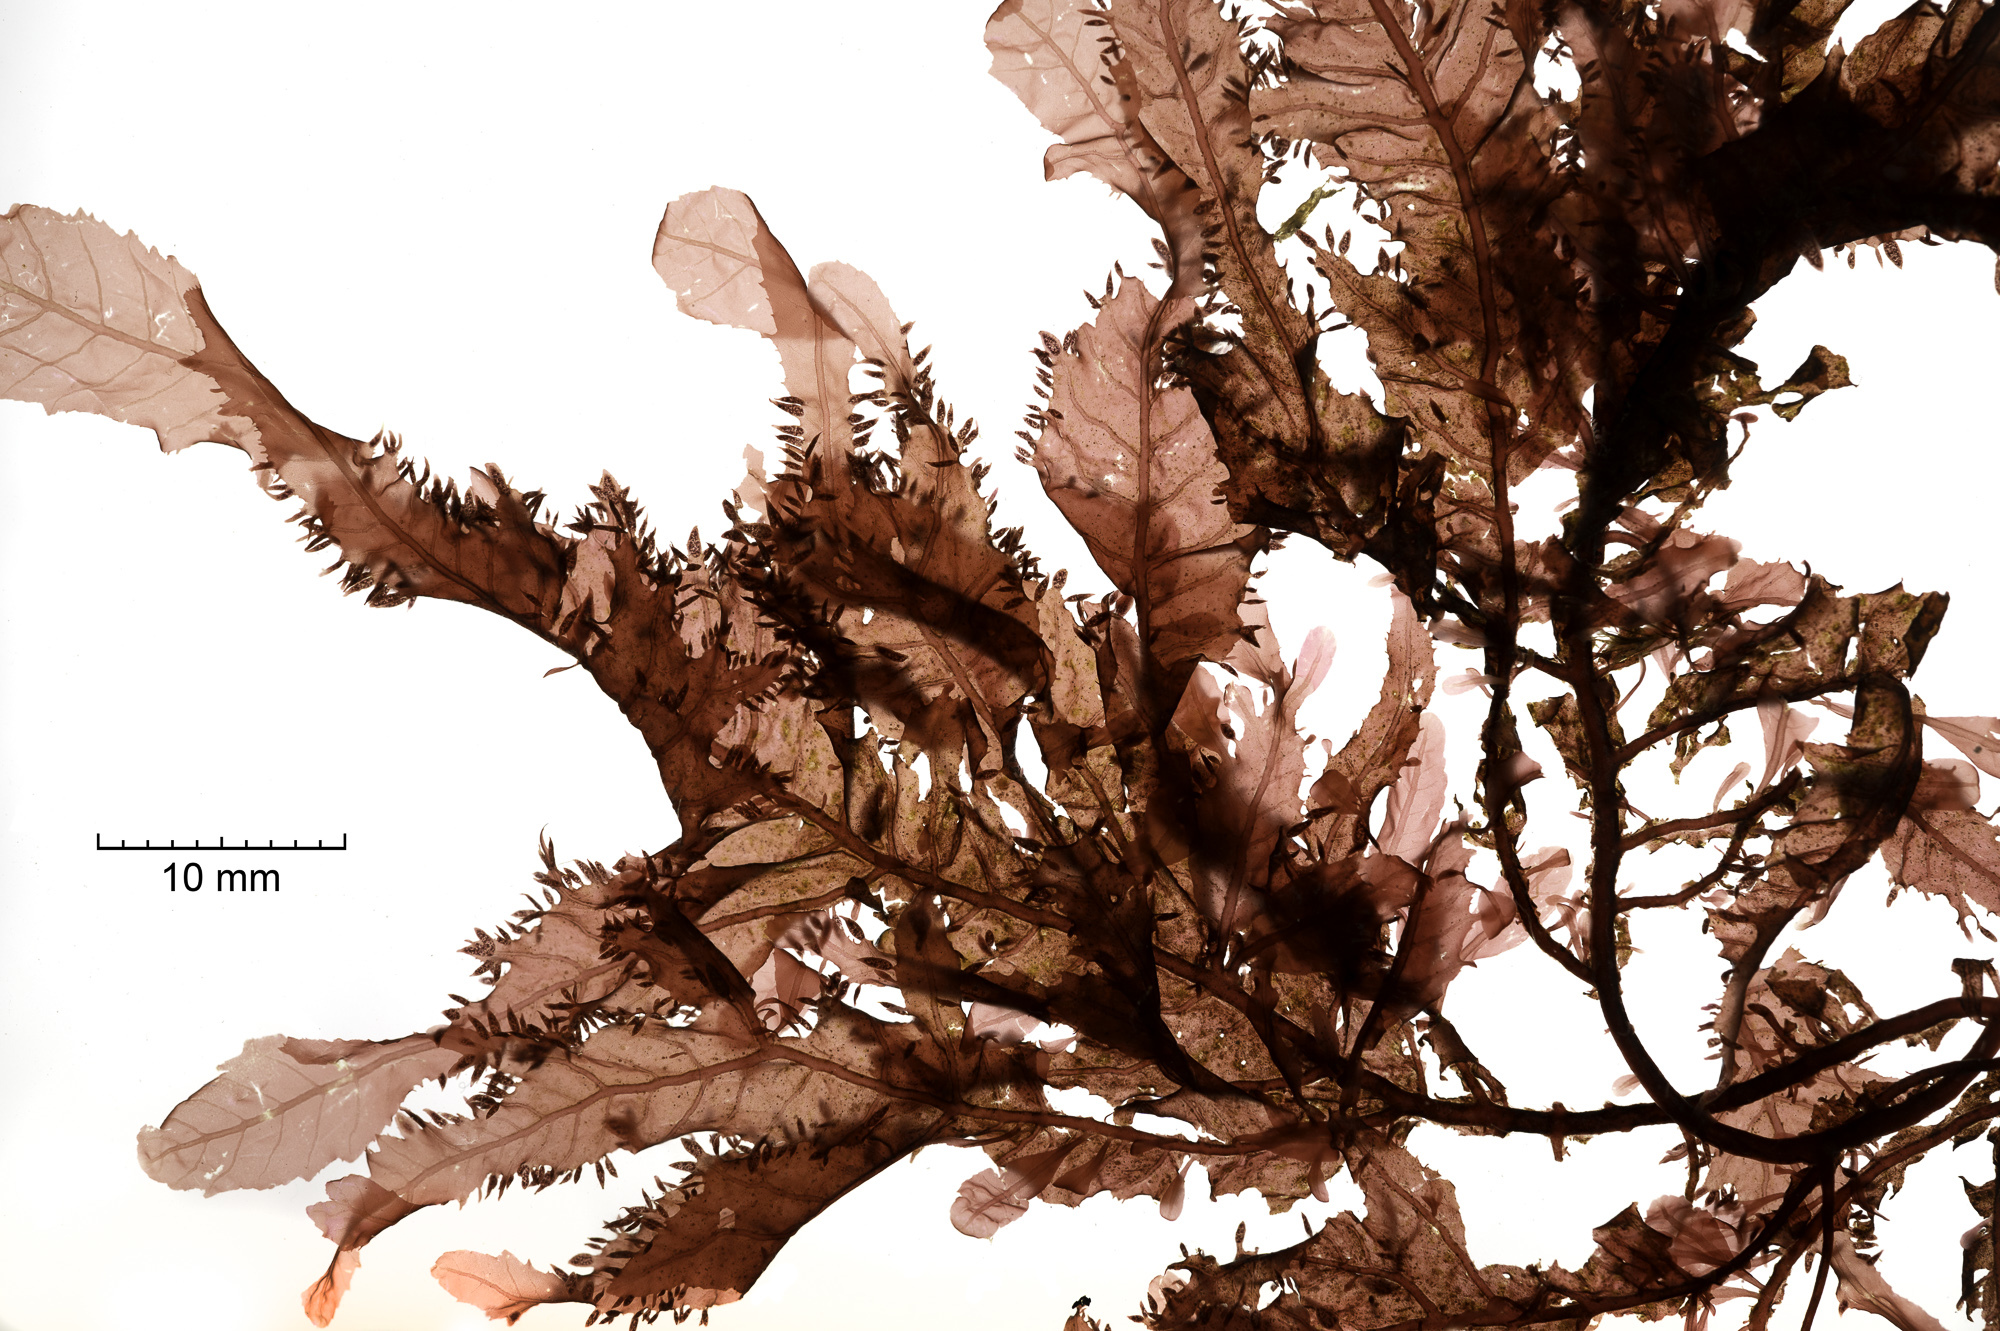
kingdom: Plantae
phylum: Rhodophyta
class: Florideophyceae
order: Ceramiales
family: Delesseriaceae
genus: Phycodrys
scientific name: Phycodrys rubens
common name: Sea oak
